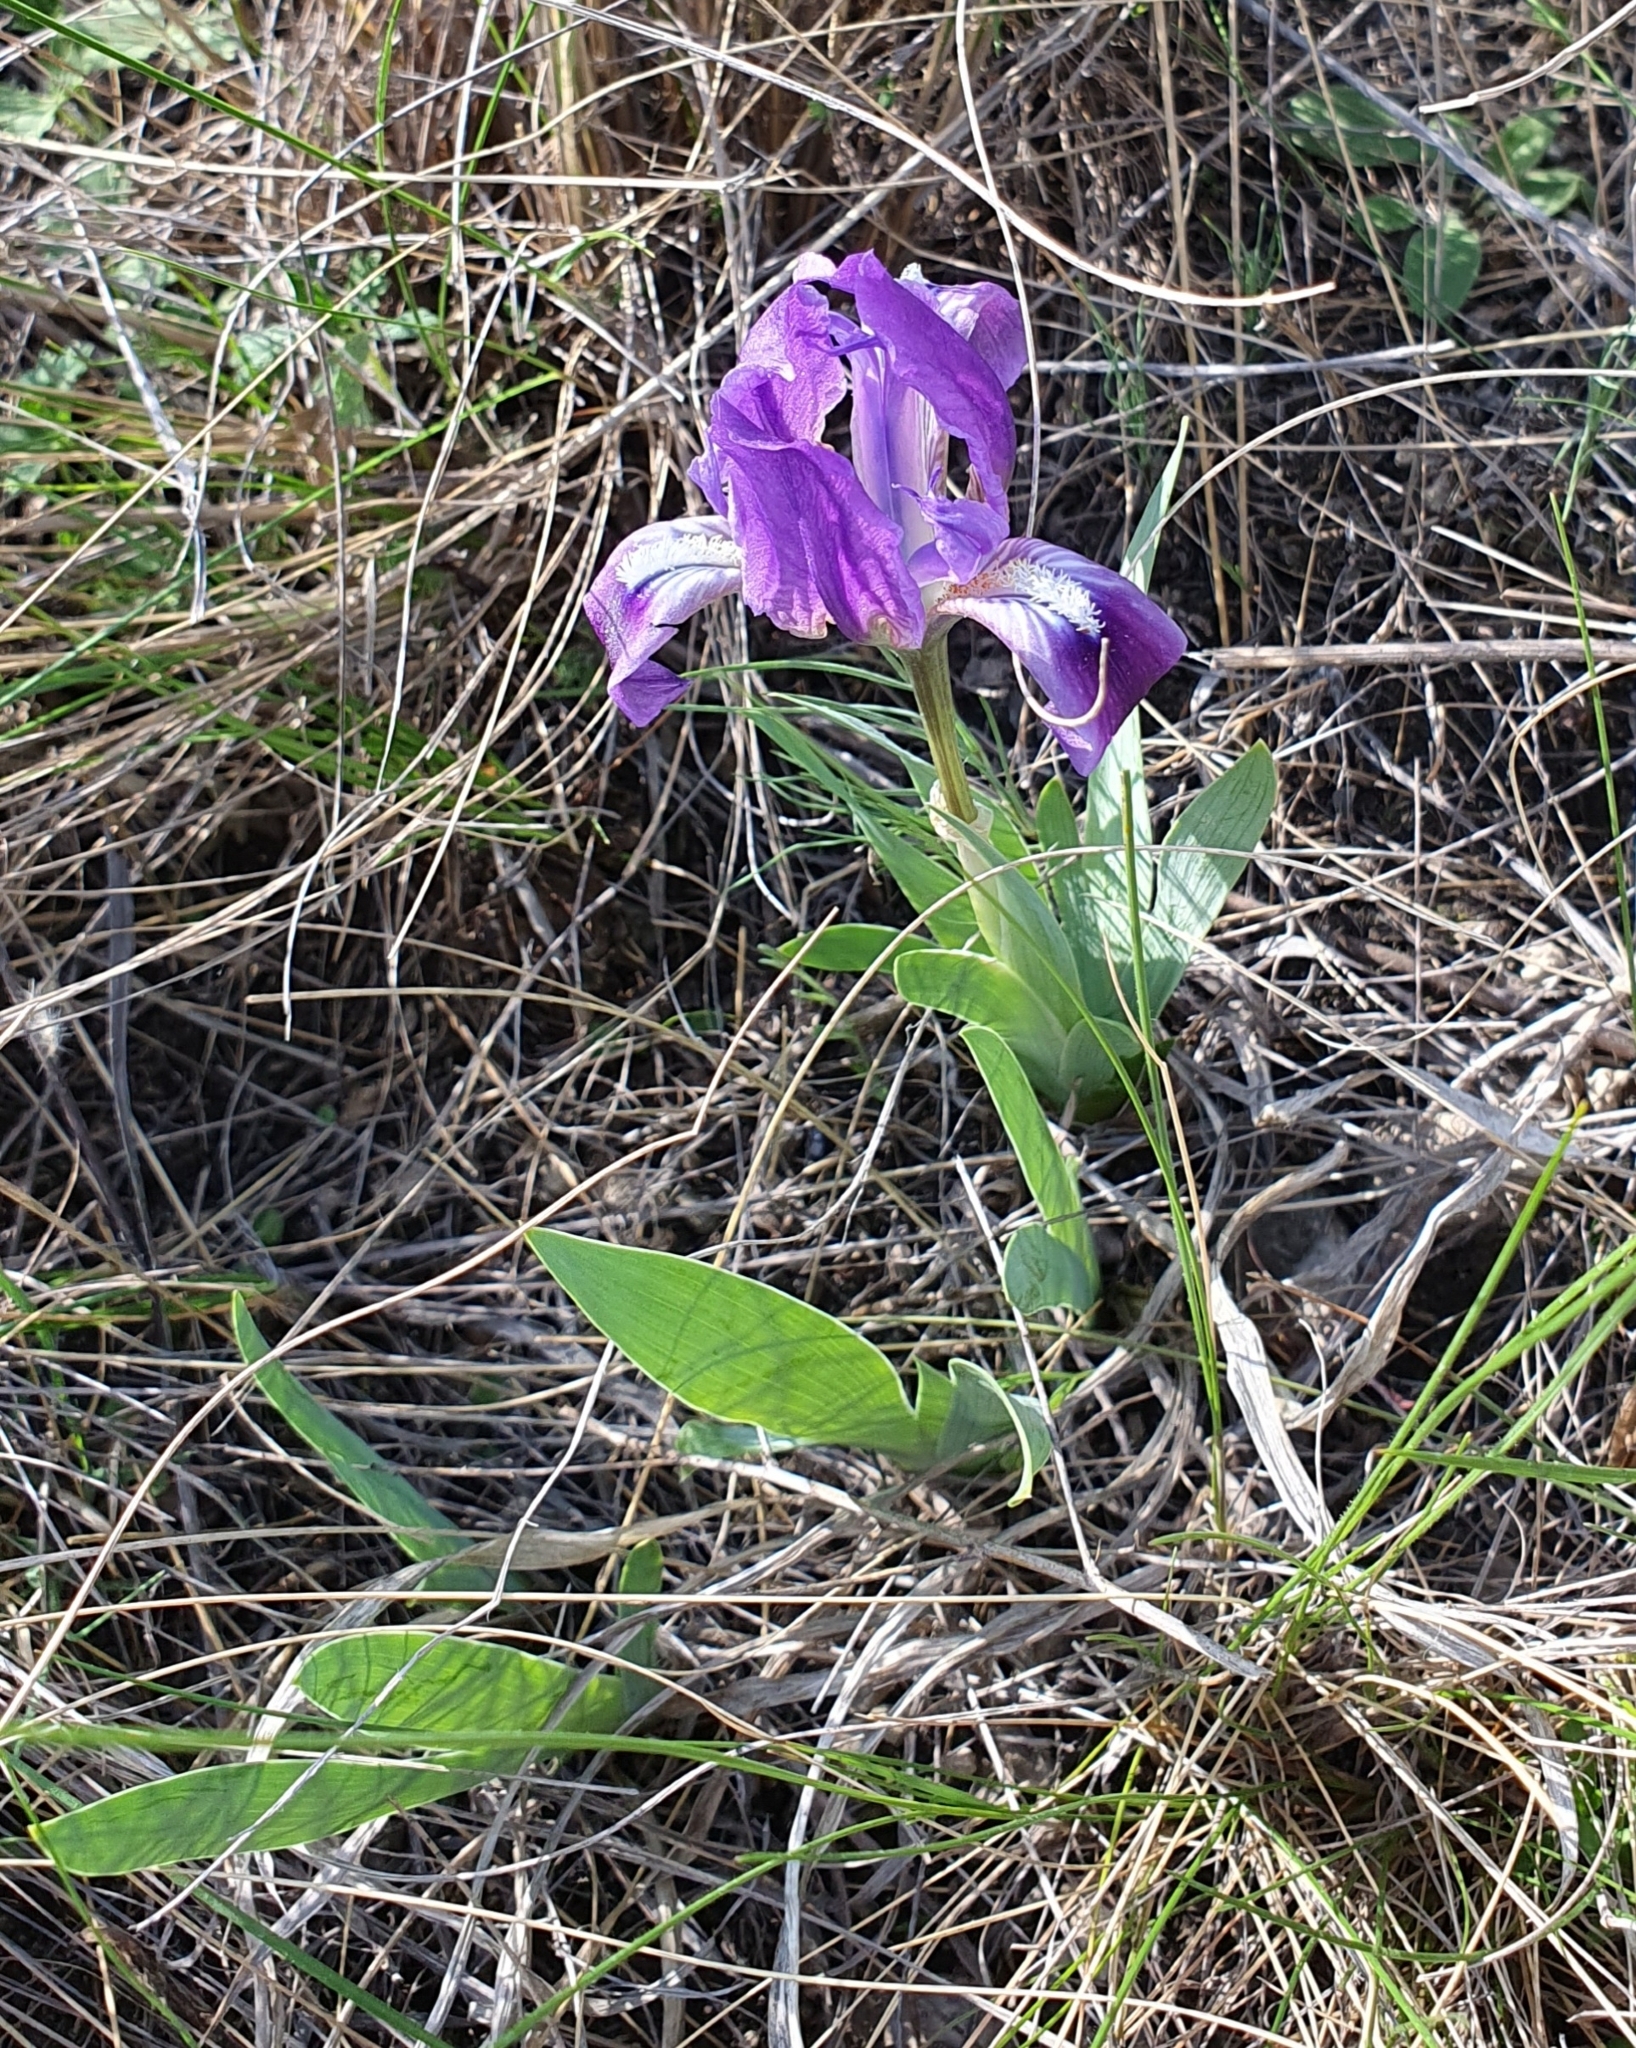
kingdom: Plantae
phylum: Tracheophyta
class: Liliopsida
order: Asparagales
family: Iridaceae
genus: Iris
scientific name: Iris pumila
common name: Dwarf iris
